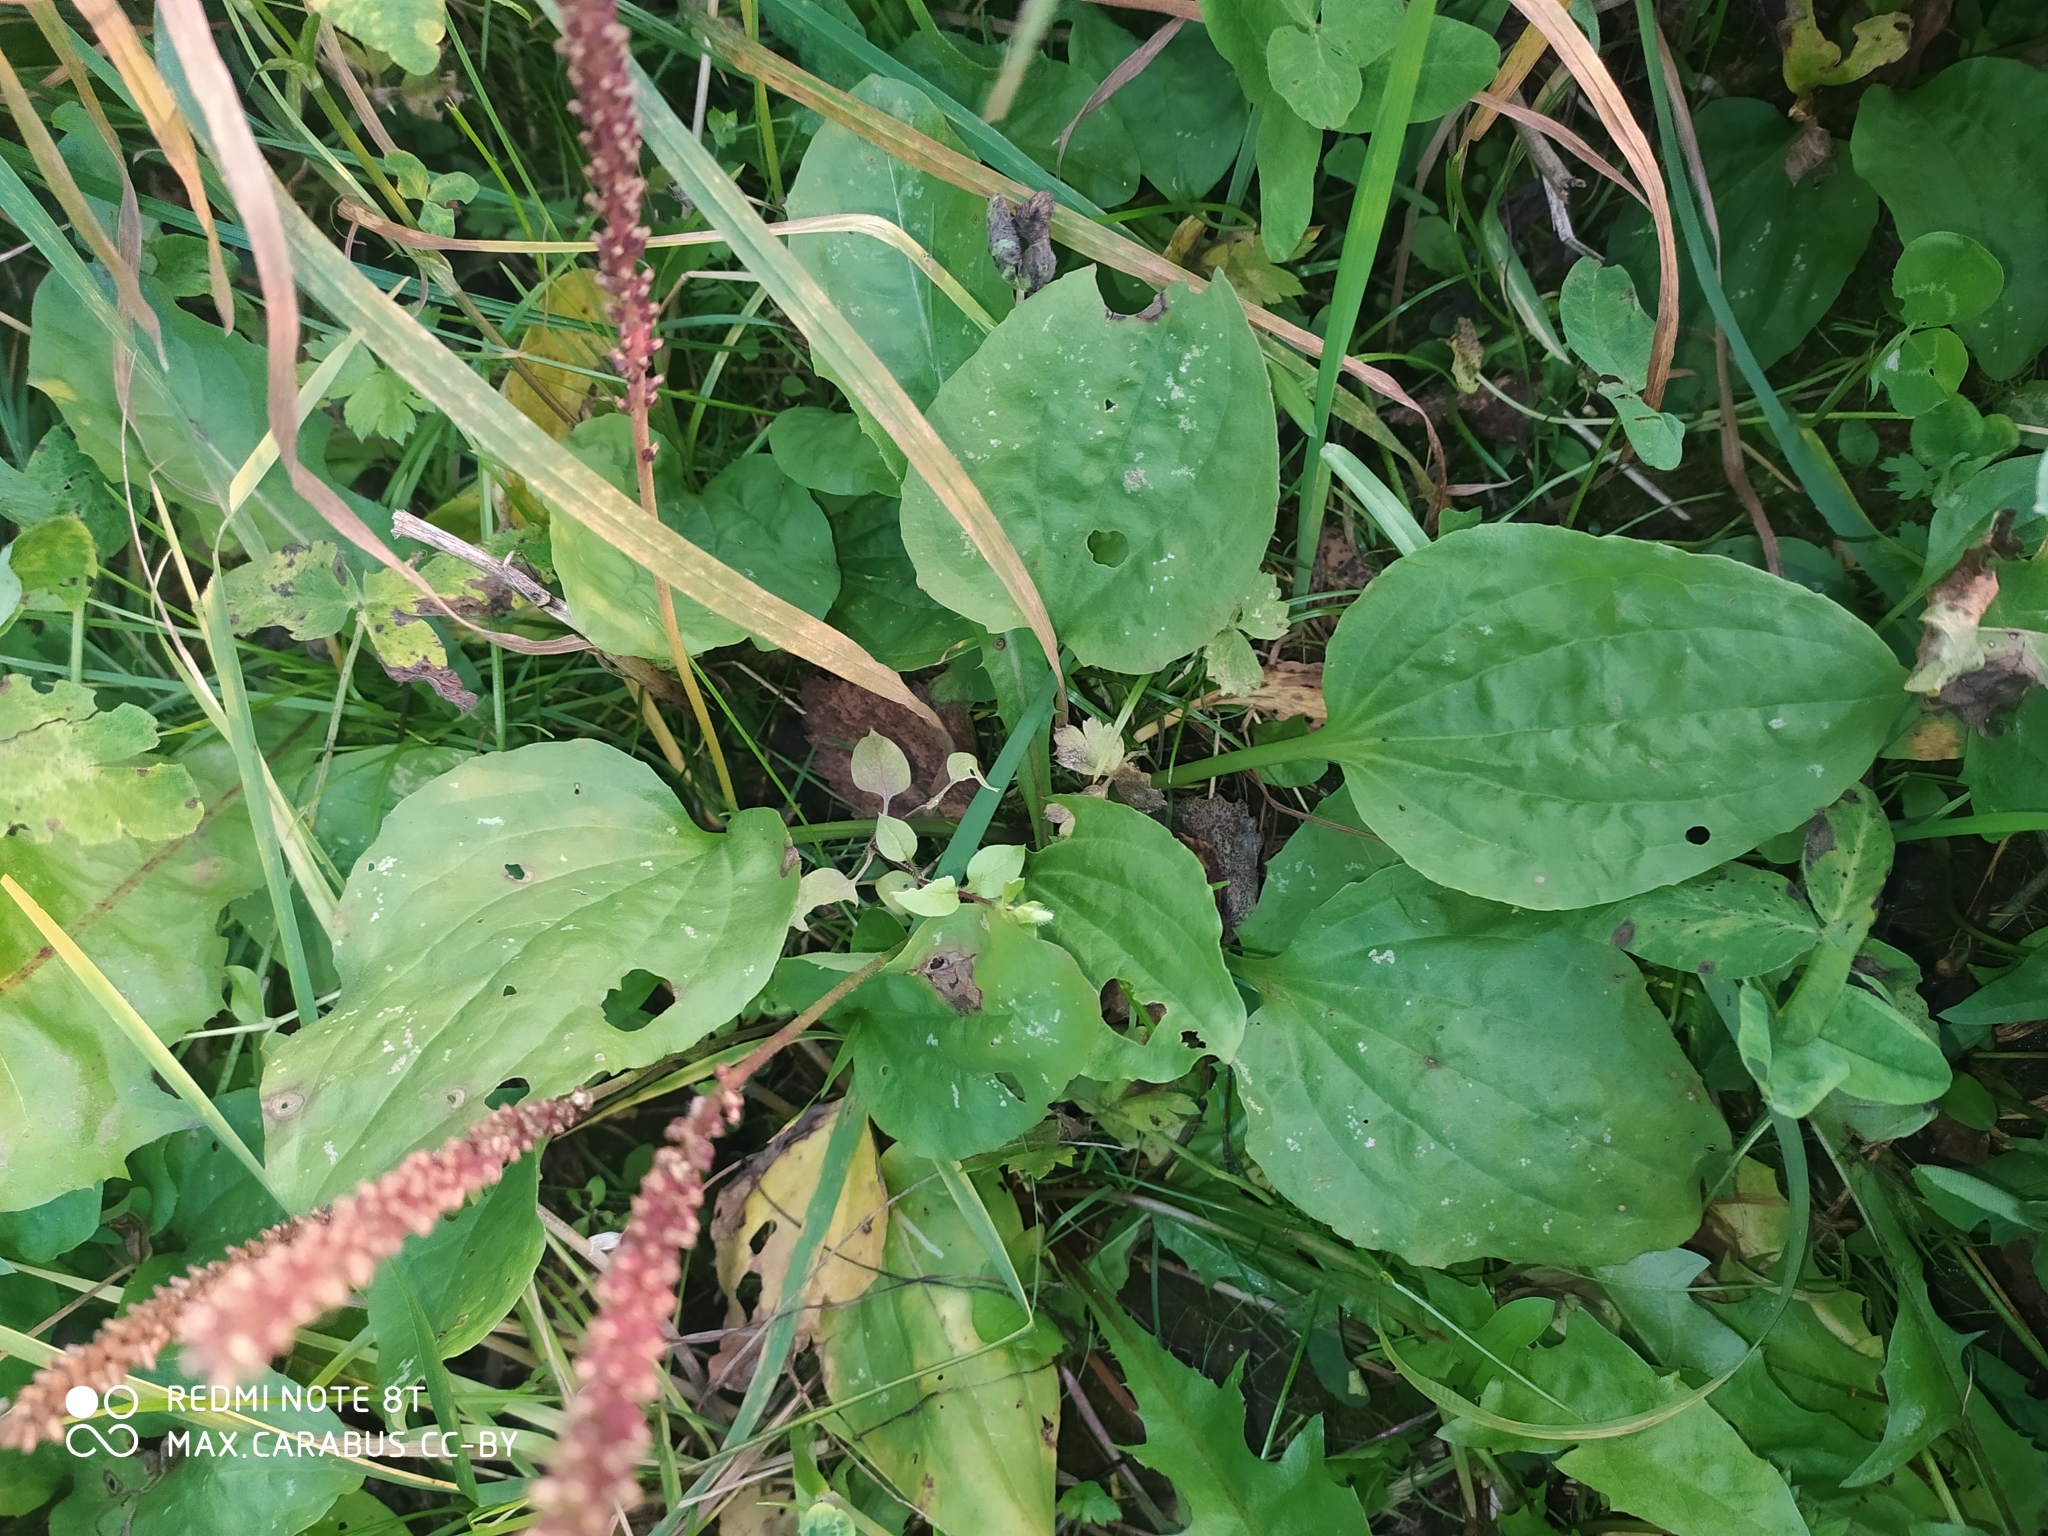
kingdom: Plantae
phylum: Tracheophyta
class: Magnoliopsida
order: Lamiales
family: Plantaginaceae
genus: Plantago
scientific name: Plantago major
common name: Common plantain
